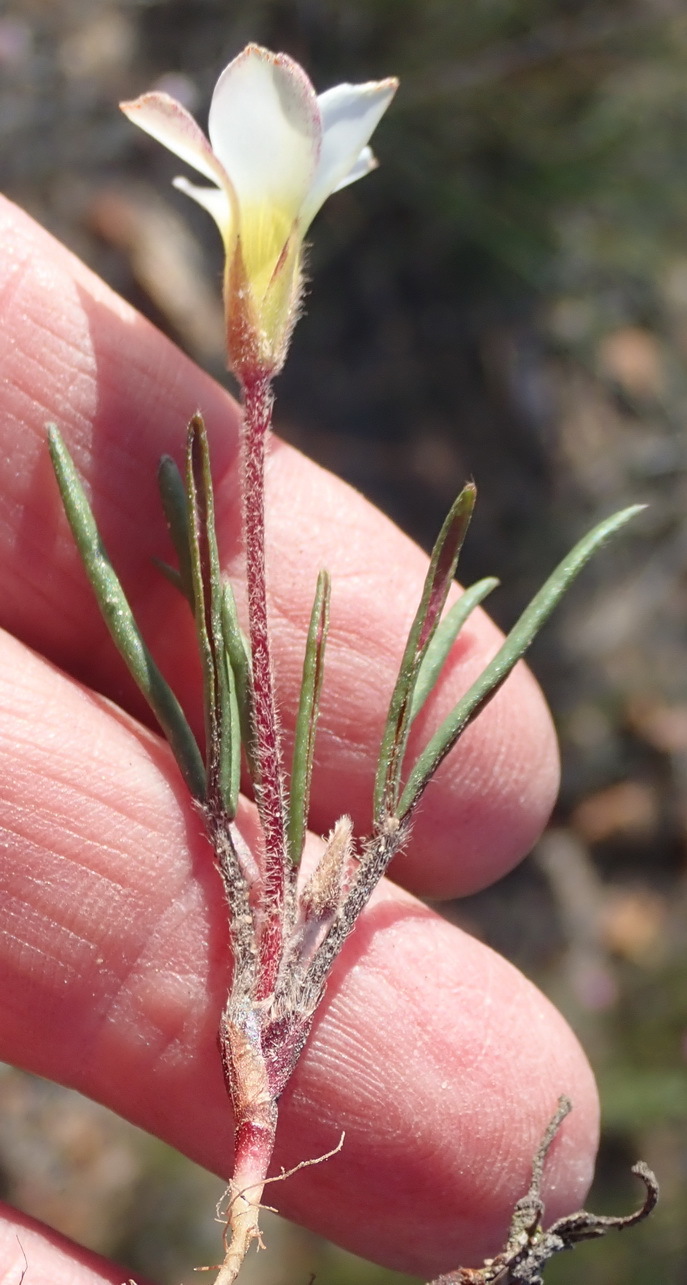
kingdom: Plantae
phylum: Tracheophyta
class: Magnoliopsida
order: Oxalidales
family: Oxalidaceae
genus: Oxalis
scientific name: Oxalis algoensis
